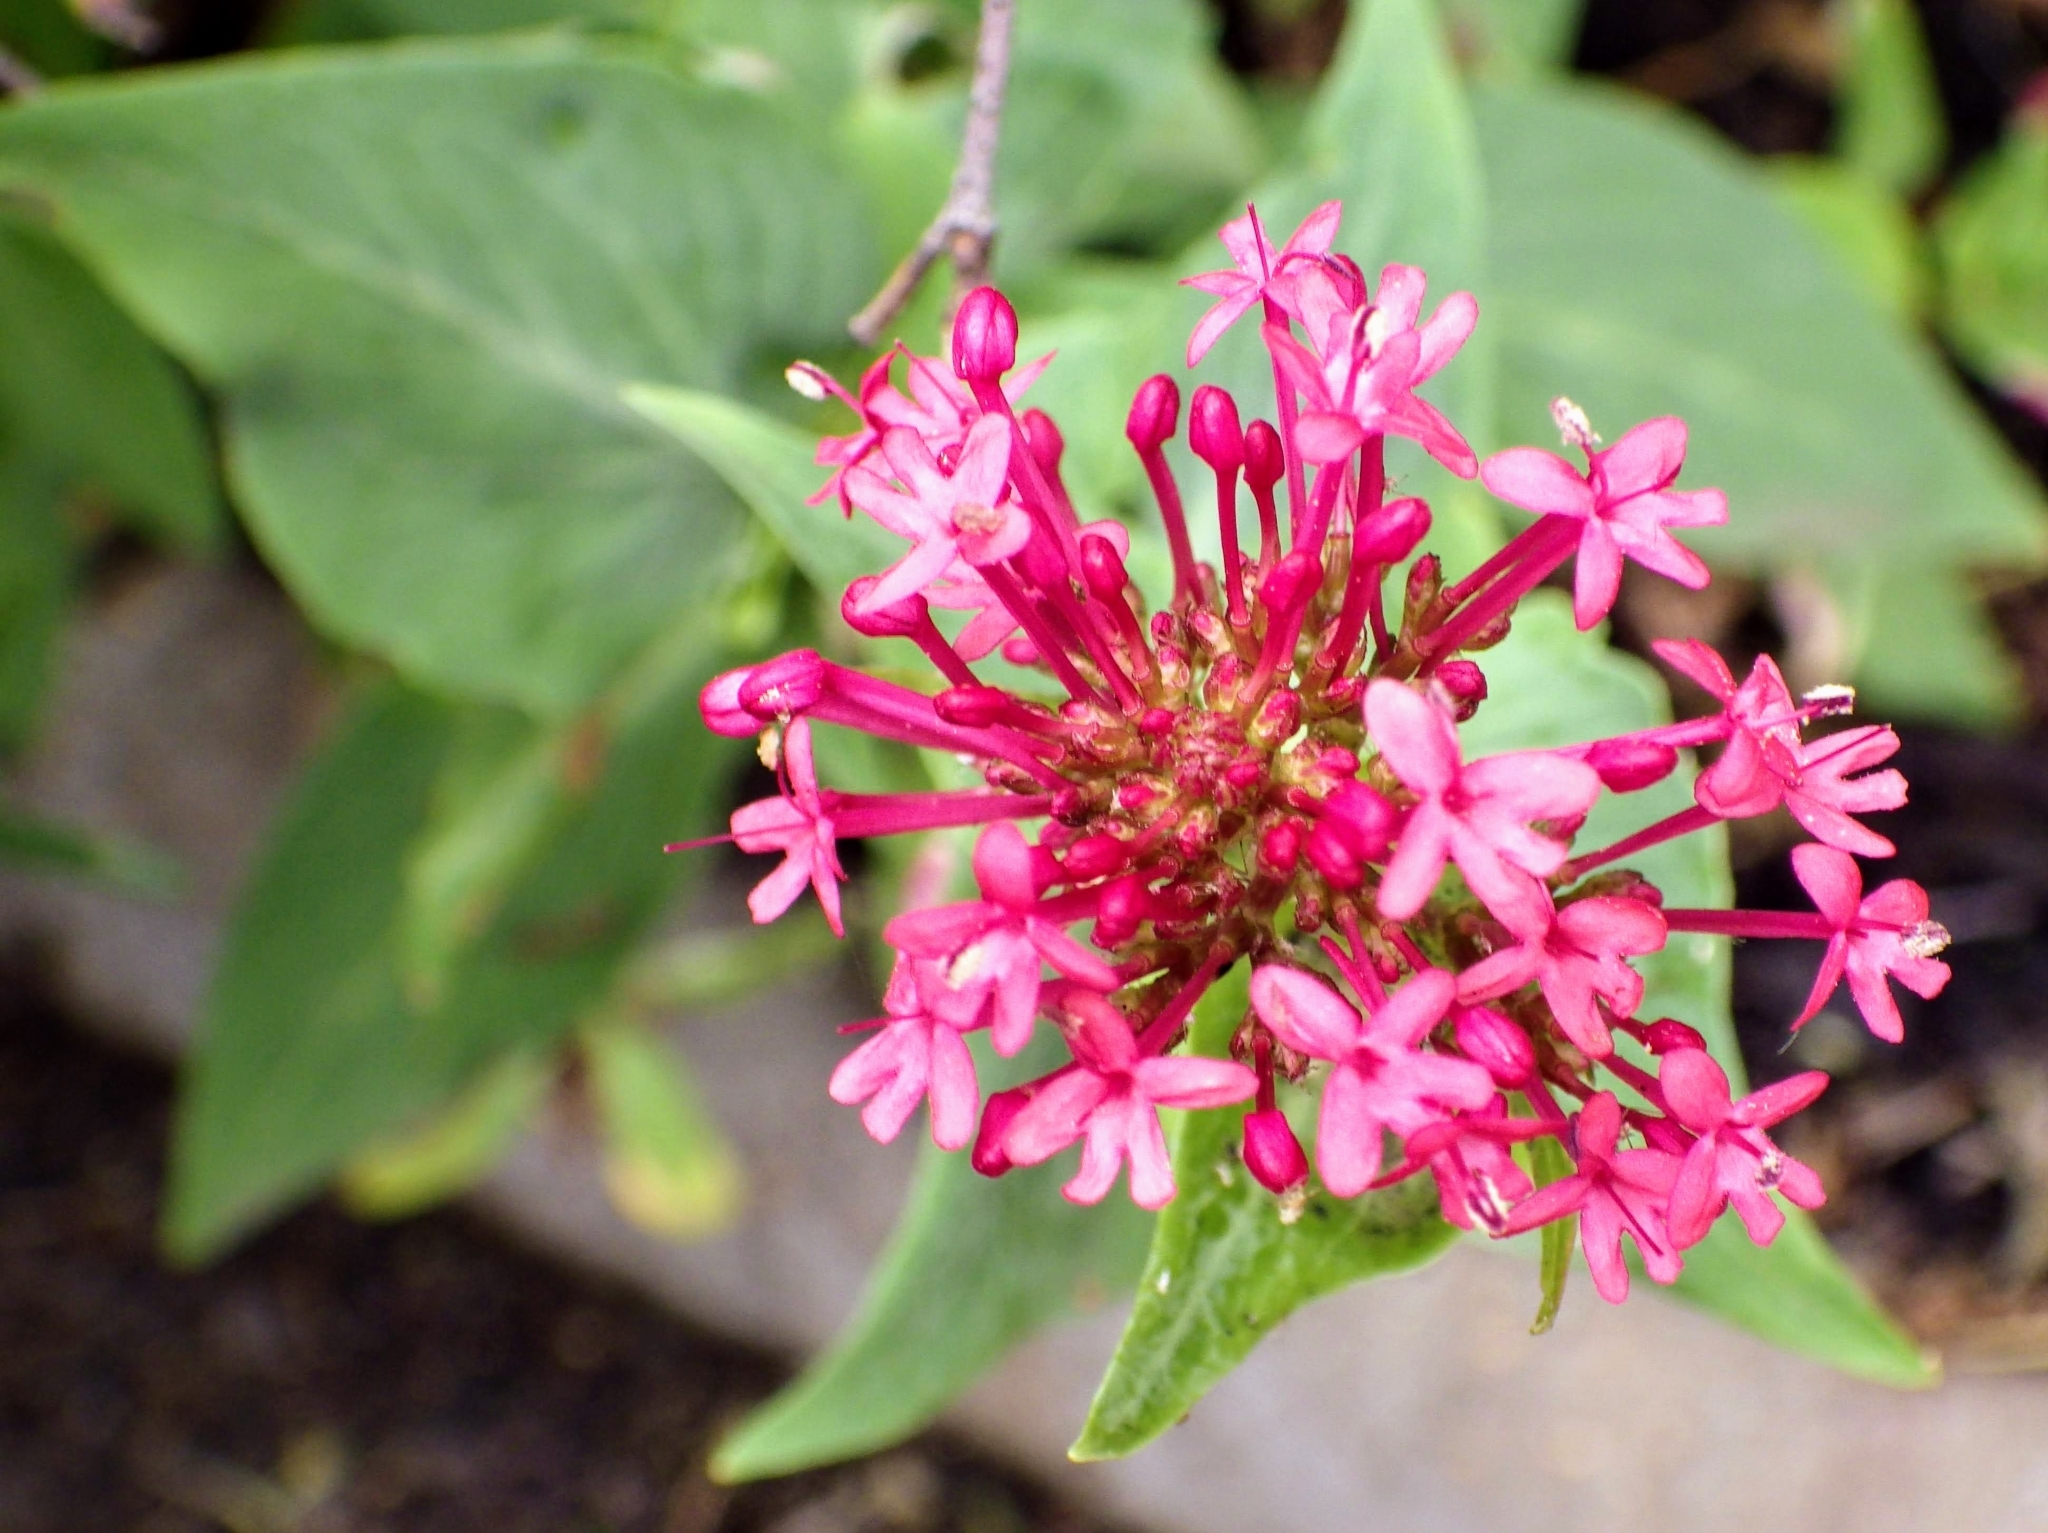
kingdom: Plantae
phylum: Tracheophyta
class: Magnoliopsida
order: Dipsacales
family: Caprifoliaceae
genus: Centranthus
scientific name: Centranthus ruber
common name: Red valerian
